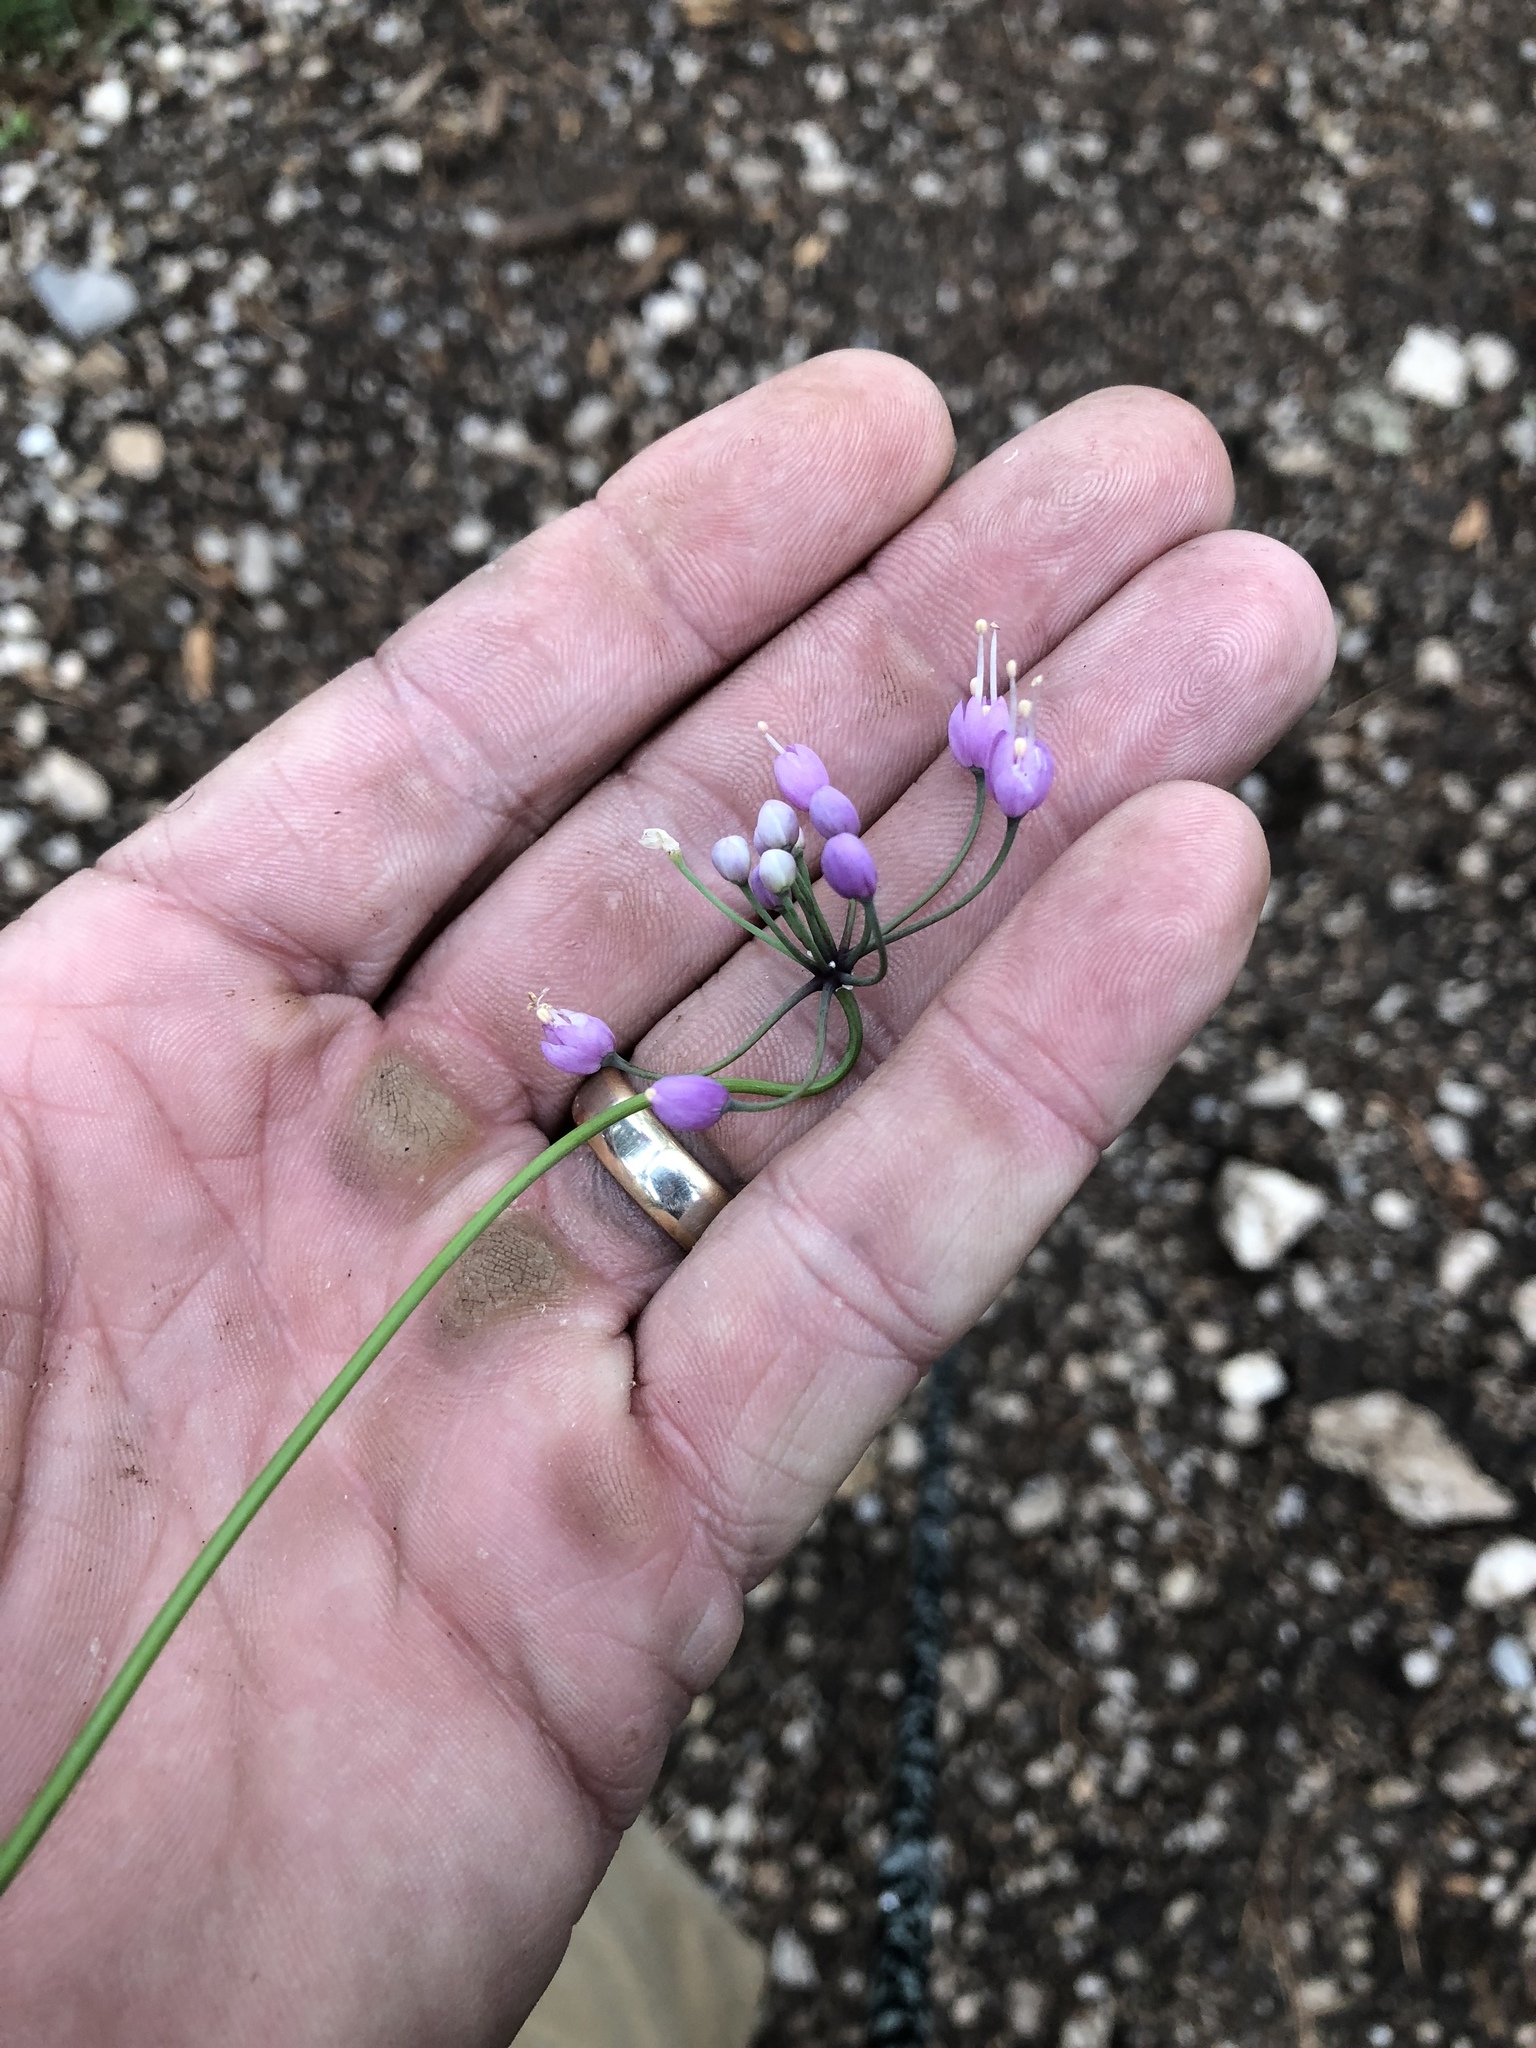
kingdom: Plantae
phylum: Tracheophyta
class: Liliopsida
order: Asparagales
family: Amaryllidaceae
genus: Allium
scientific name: Allium cernuum
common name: Nodding onion
